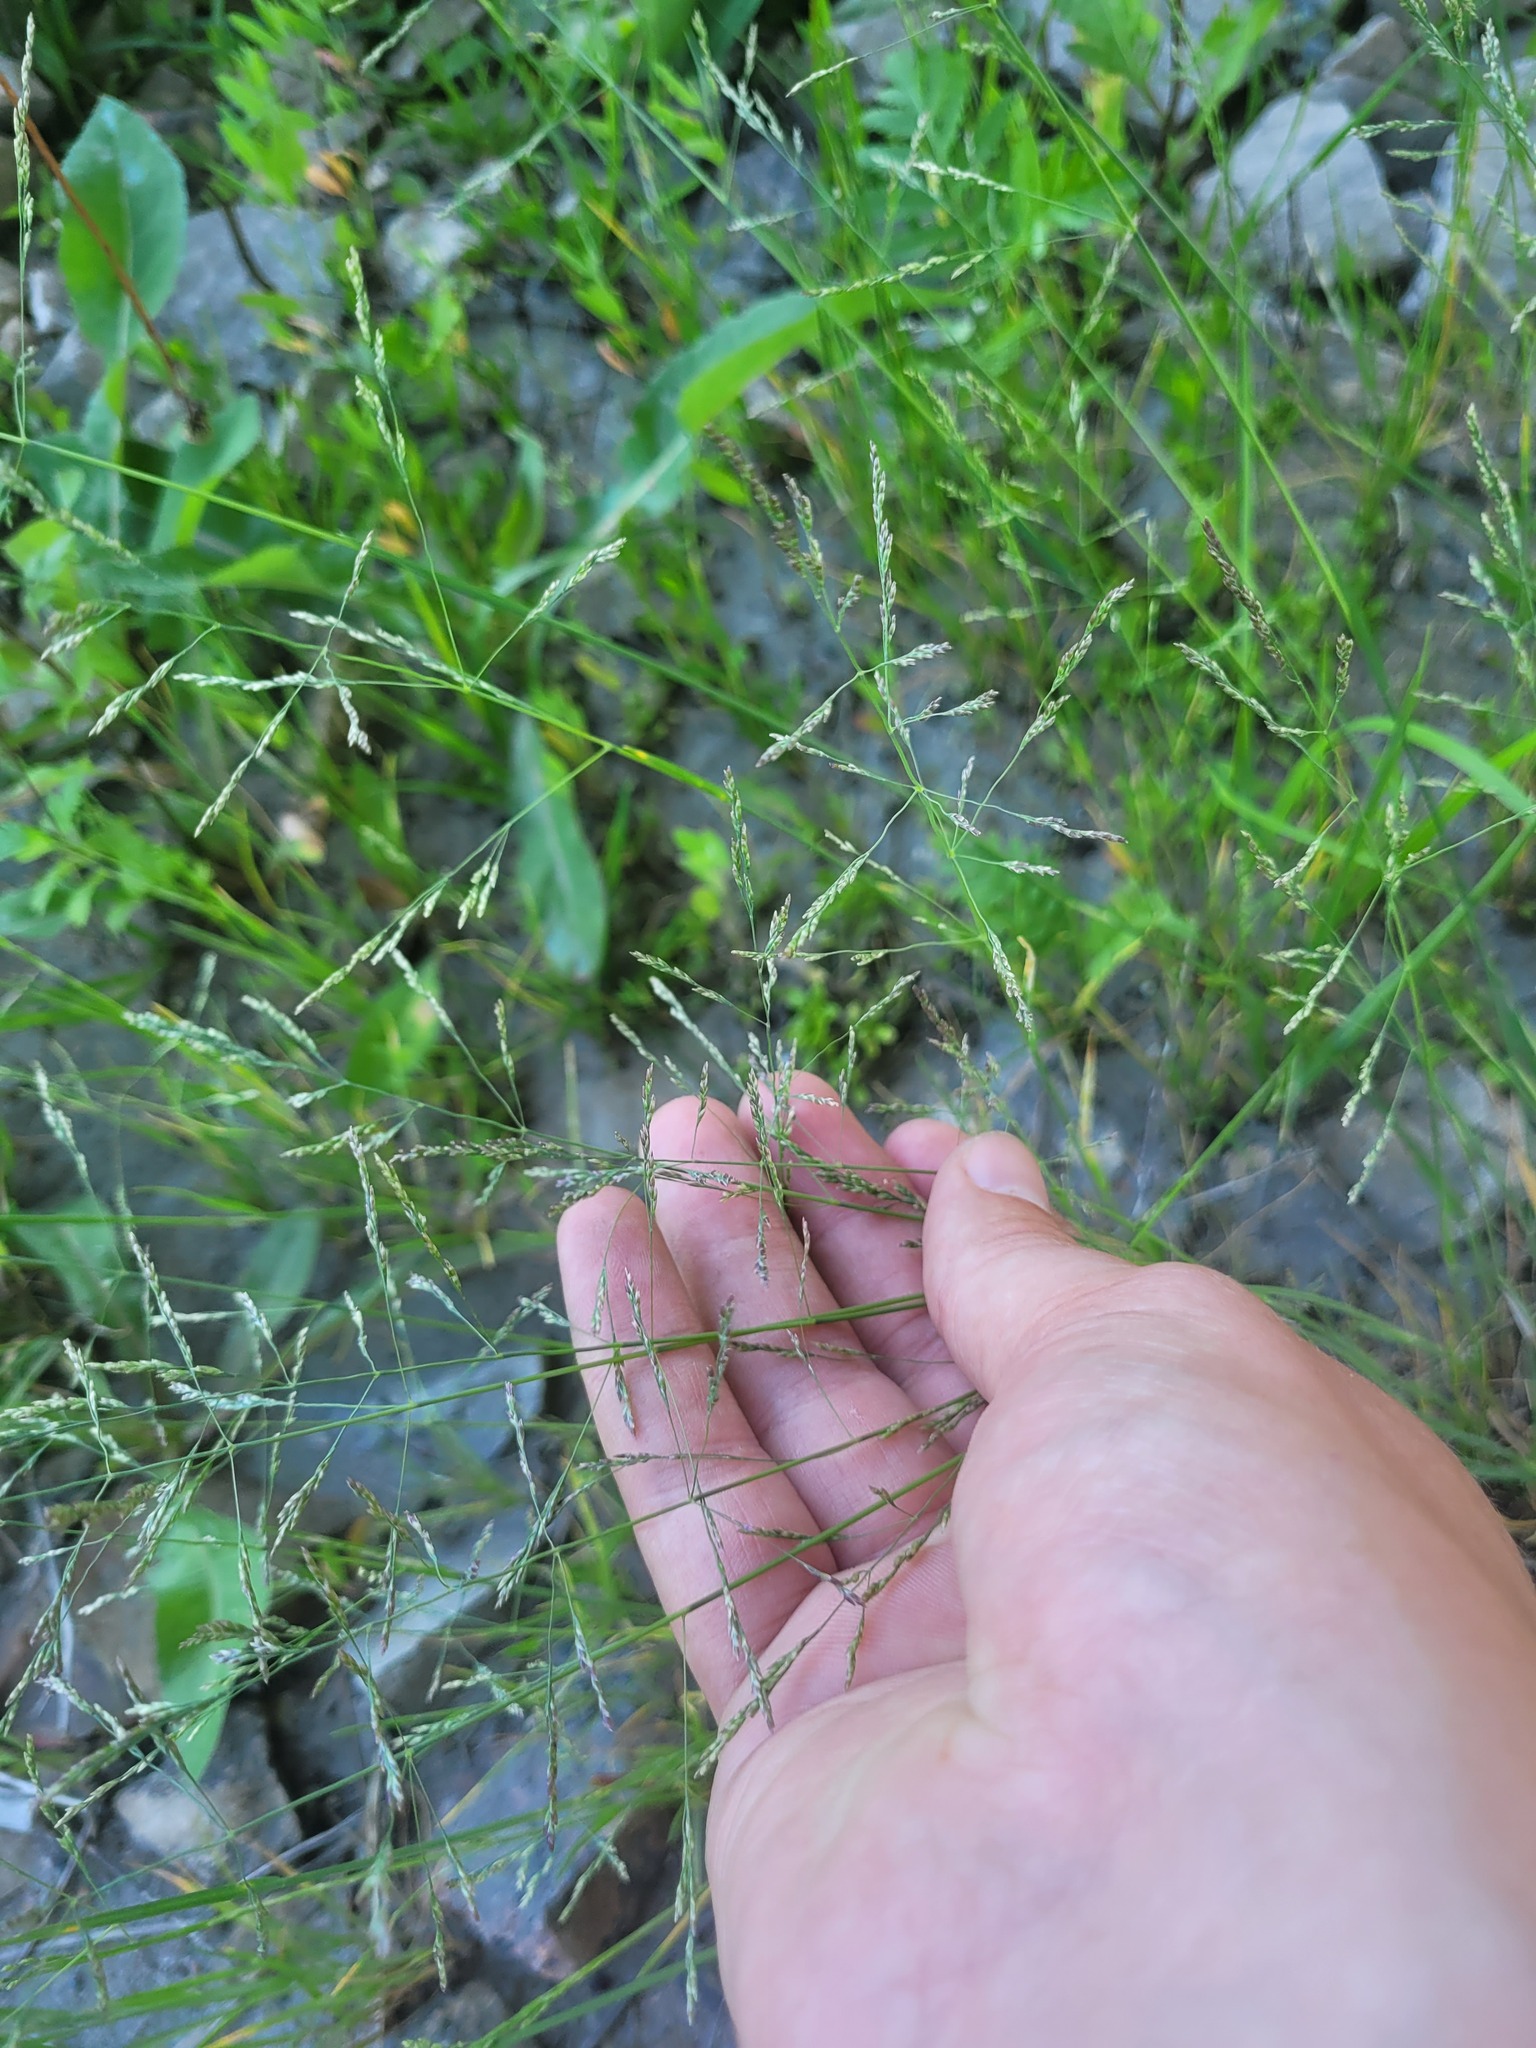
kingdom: Plantae
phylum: Tracheophyta
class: Liliopsida
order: Poales
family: Poaceae
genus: Puccinellia
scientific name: Puccinellia distans
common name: Weeping alkaligrass
